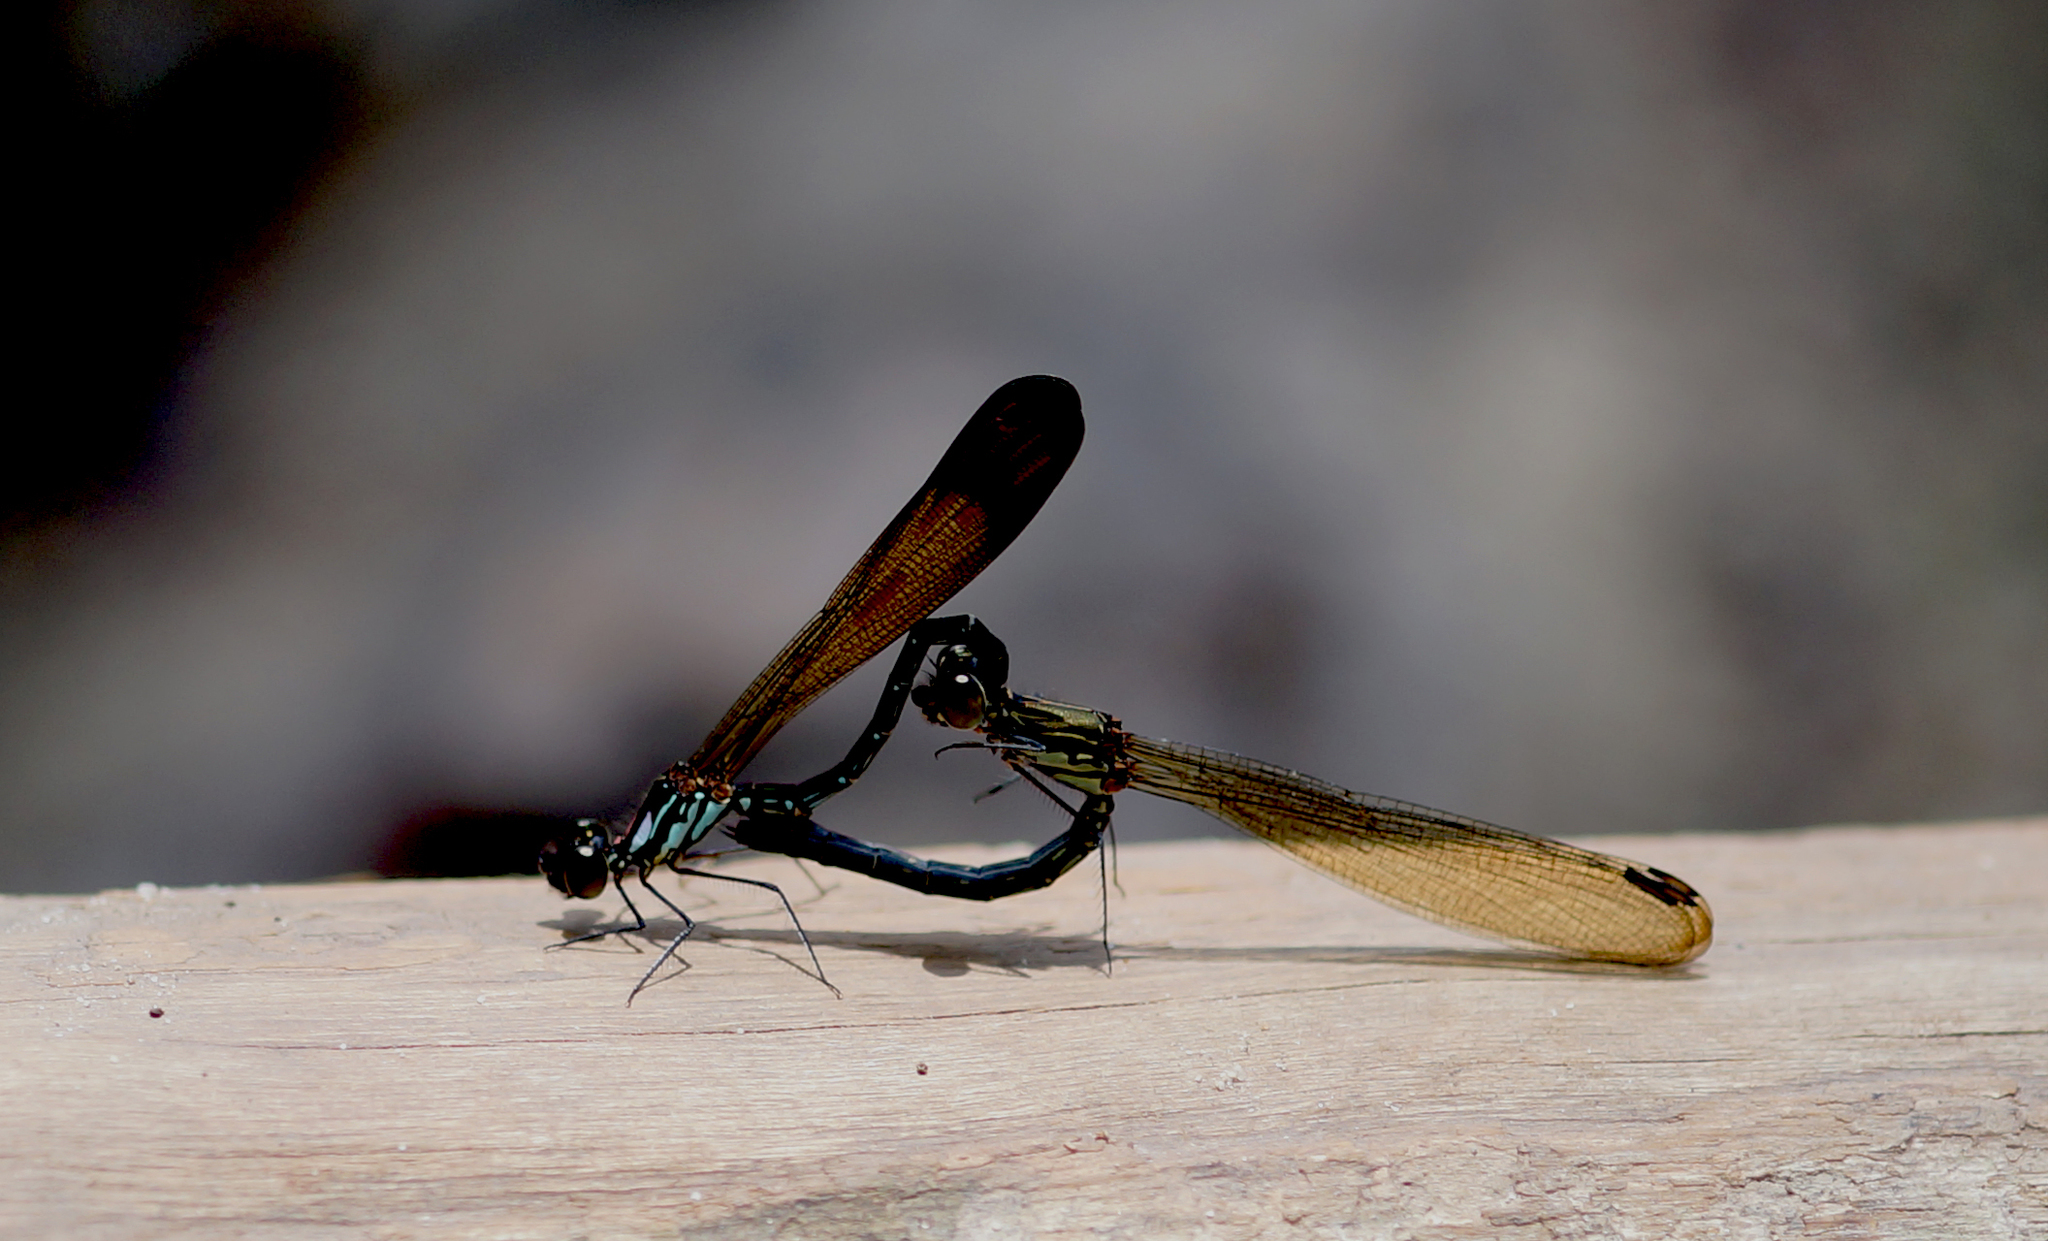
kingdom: Animalia
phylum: Arthropoda
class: Insecta
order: Odonata
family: Chlorocyphidae
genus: Heliocypha
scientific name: Heliocypha biforata
